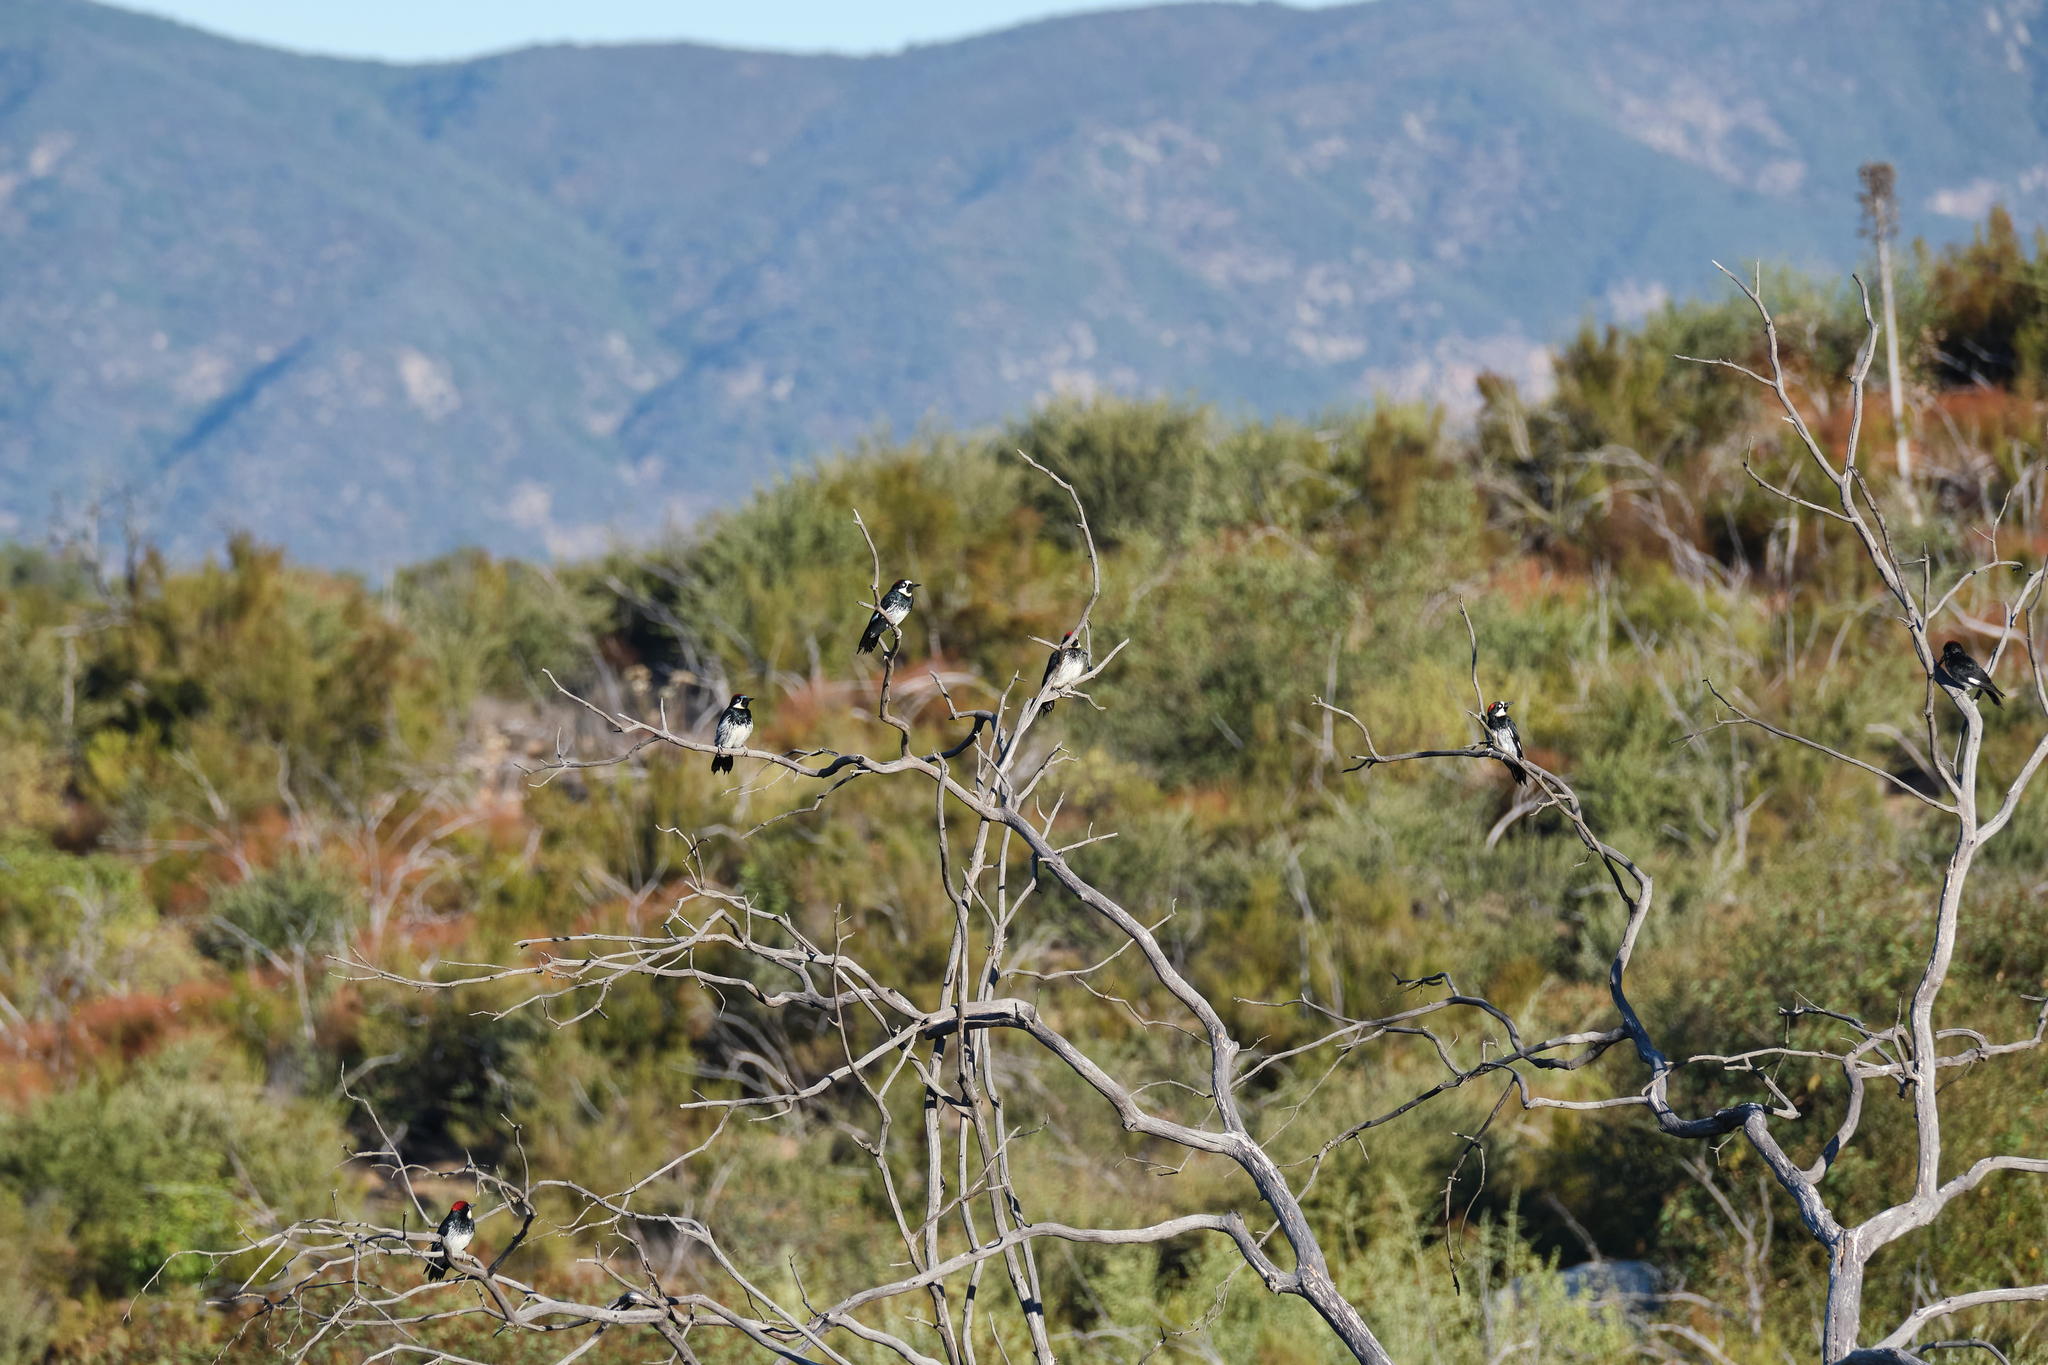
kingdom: Animalia
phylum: Chordata
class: Aves
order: Piciformes
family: Picidae
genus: Melanerpes
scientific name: Melanerpes formicivorus
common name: Acorn woodpecker
